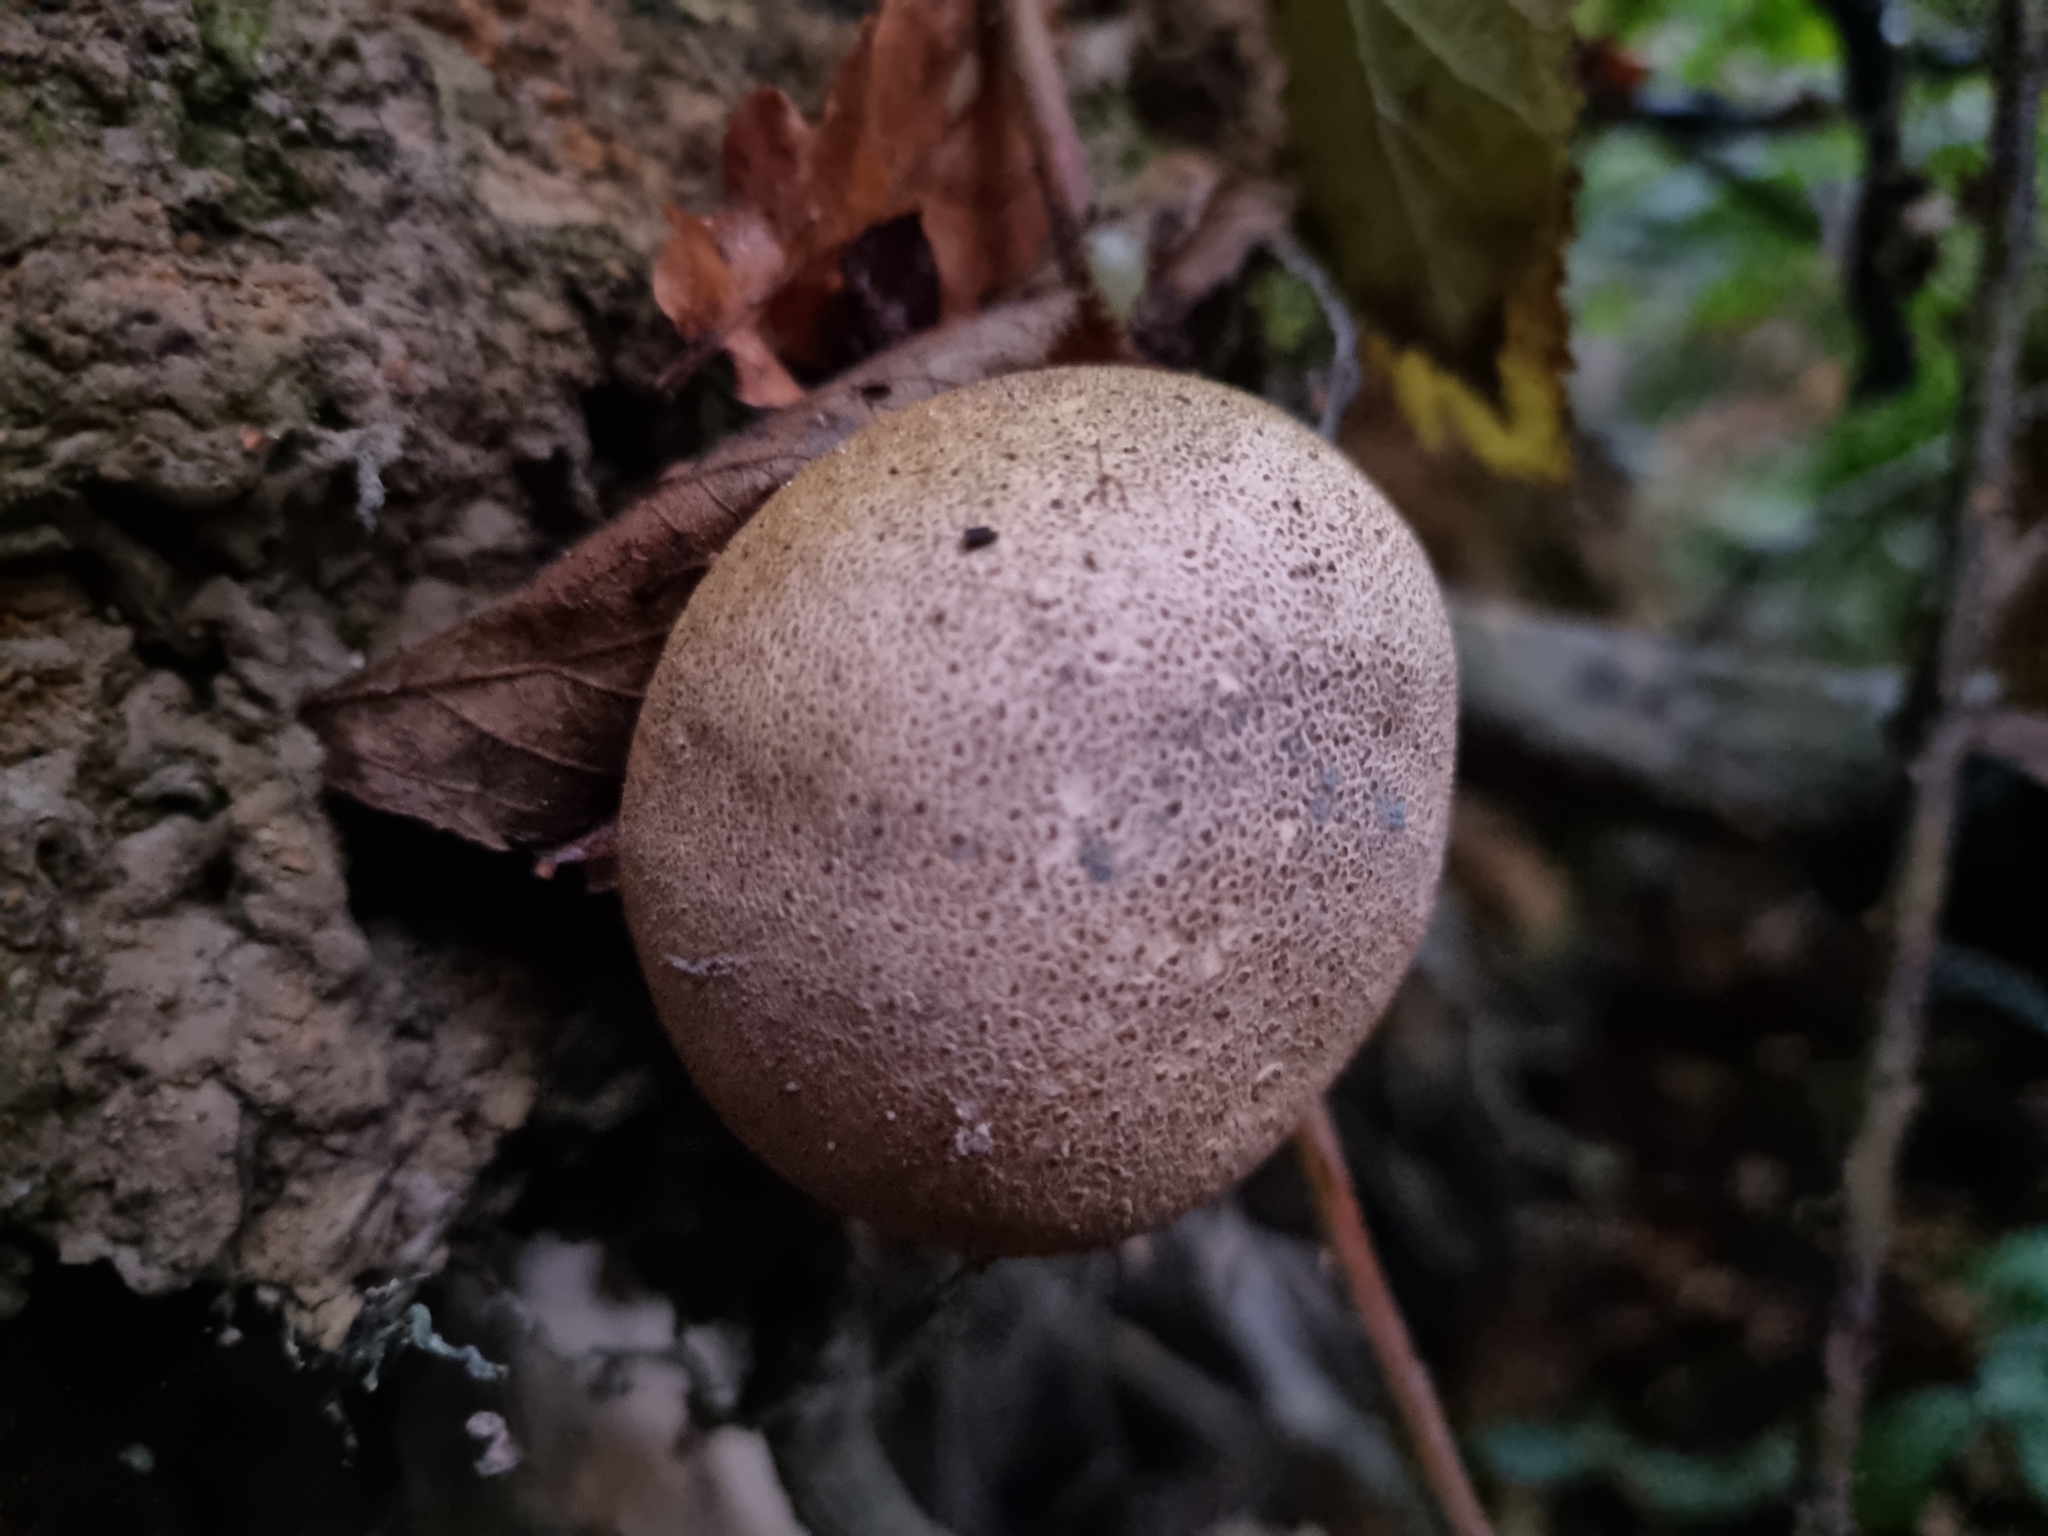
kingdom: Fungi
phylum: Basidiomycota
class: Agaricomycetes
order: Boletales
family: Sclerodermataceae
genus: Scleroderma
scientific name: Scleroderma citrinum
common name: Common earthball
